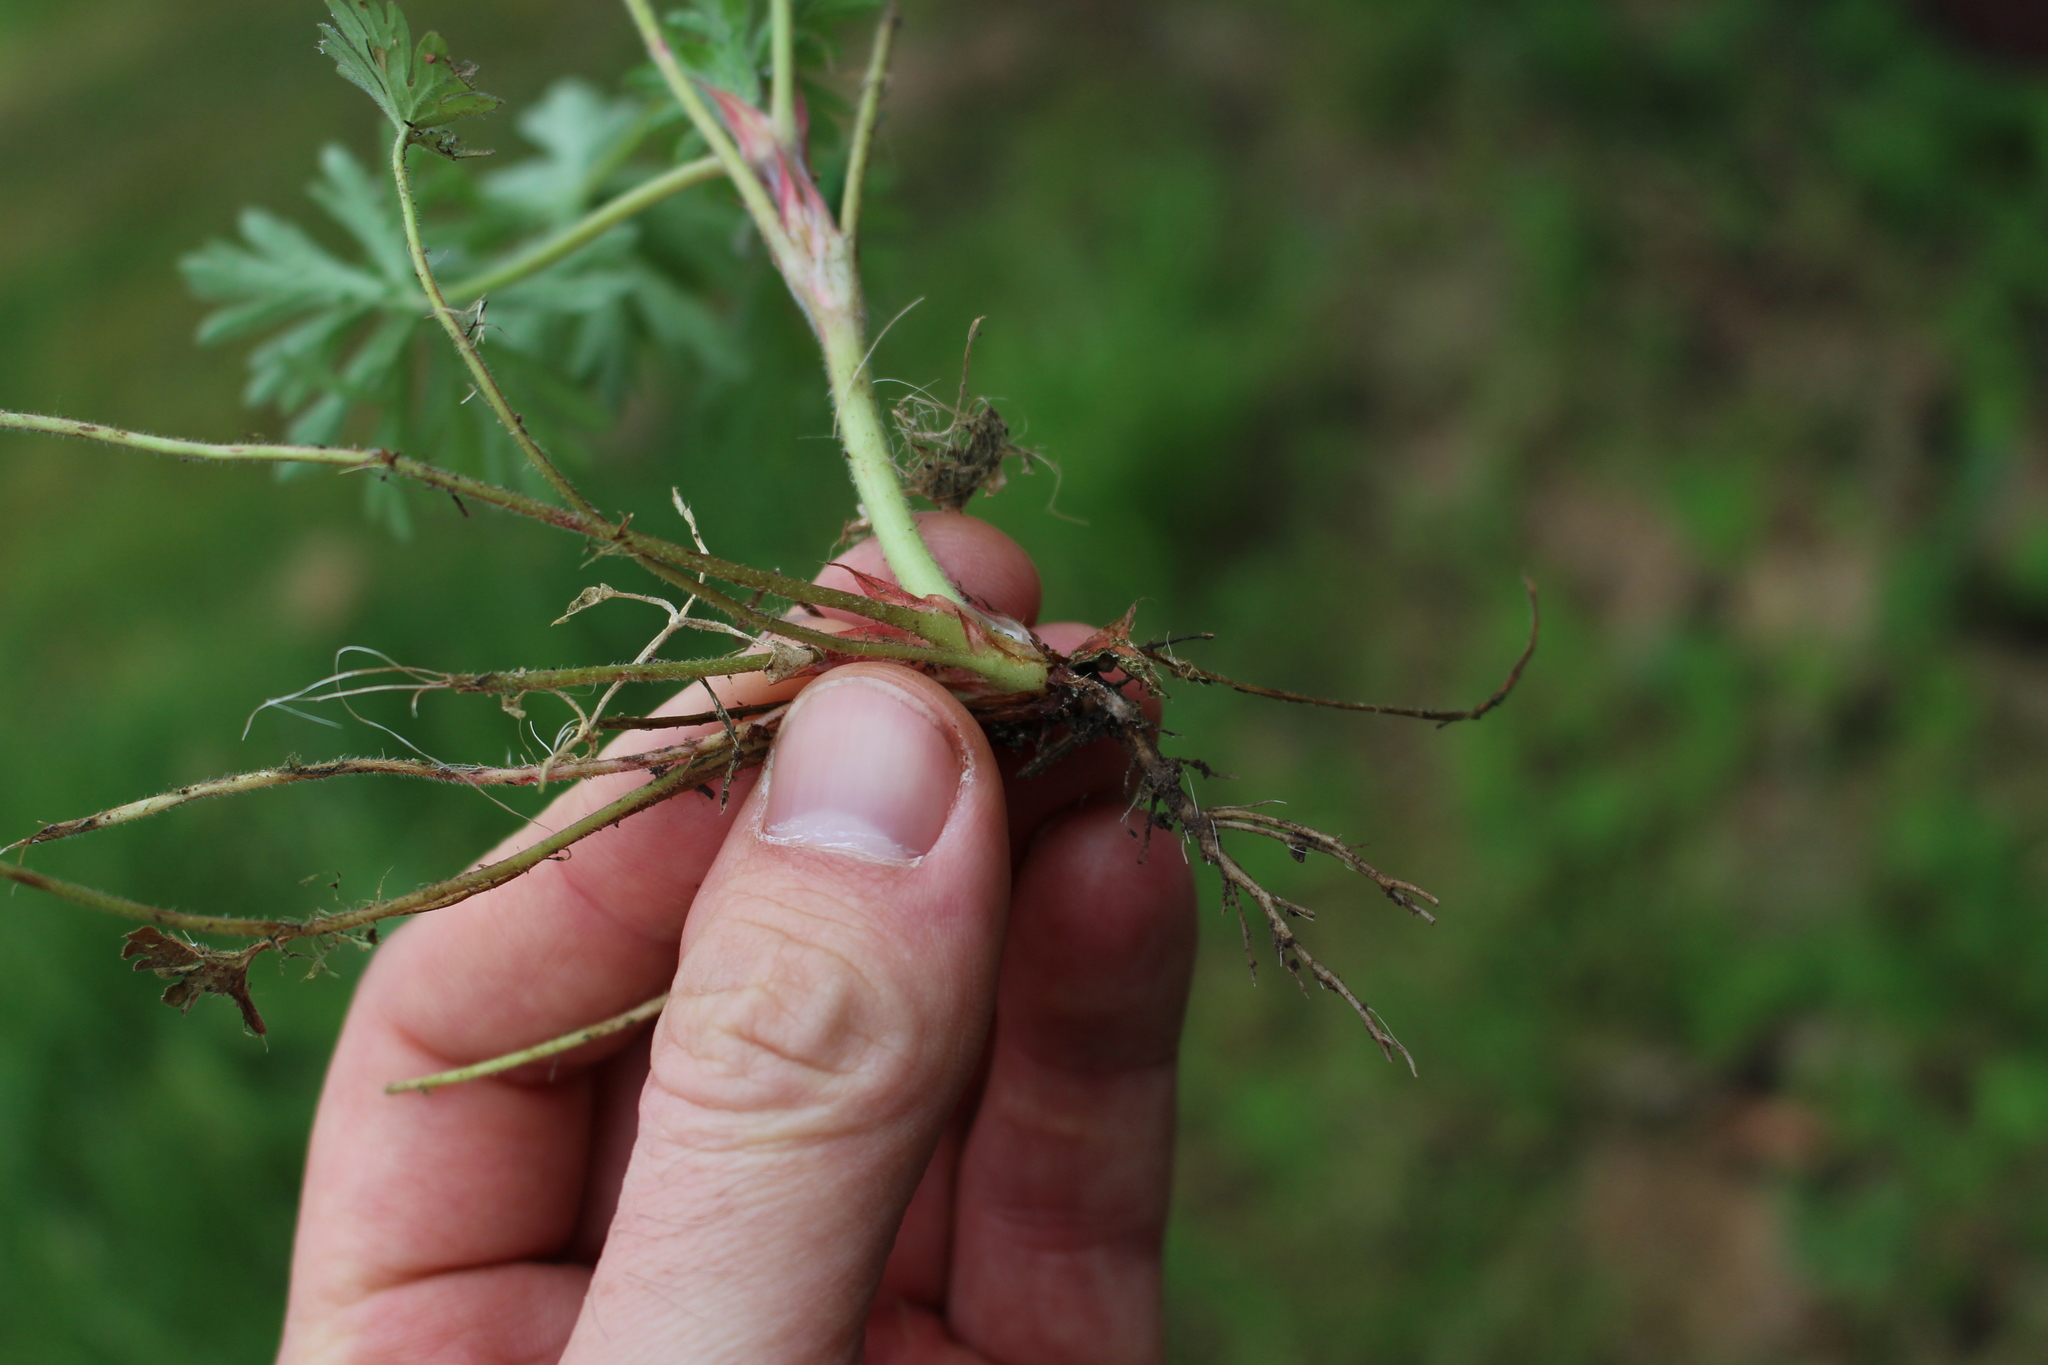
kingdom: Plantae
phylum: Tracheophyta
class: Magnoliopsida
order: Geraniales
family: Geraniaceae
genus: Geranium
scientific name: Geranium dissectum
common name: Cut-leaved crane's-bill
